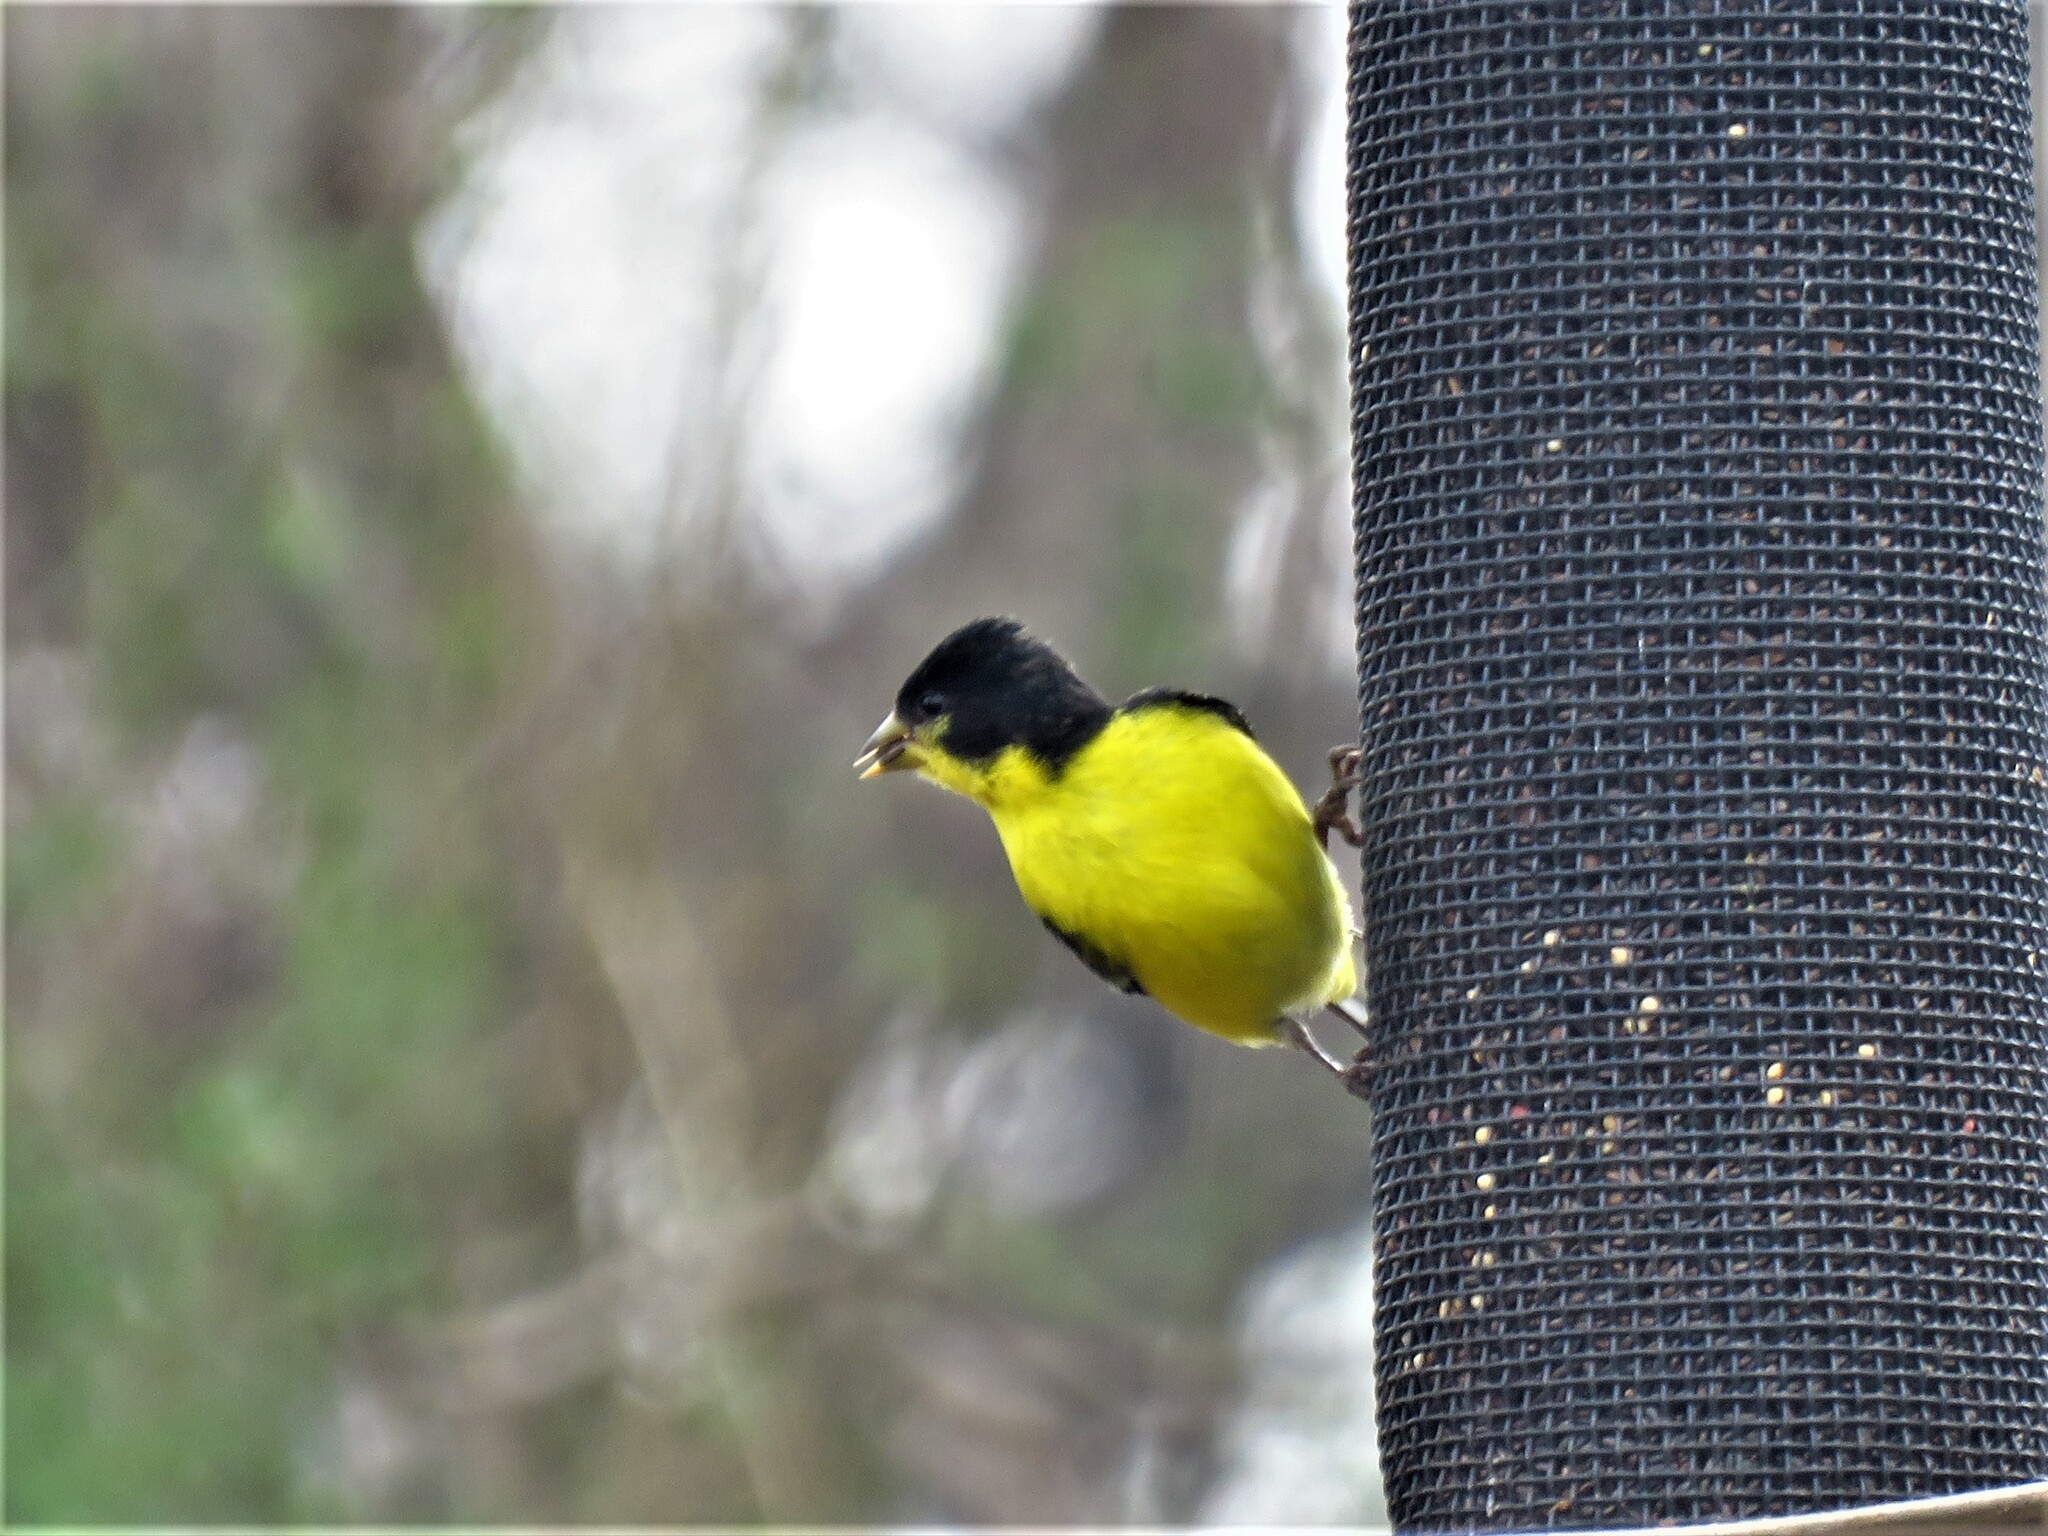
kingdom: Animalia
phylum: Chordata
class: Aves
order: Passeriformes
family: Fringillidae
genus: Spinus
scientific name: Spinus psaltria
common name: Lesser goldfinch
